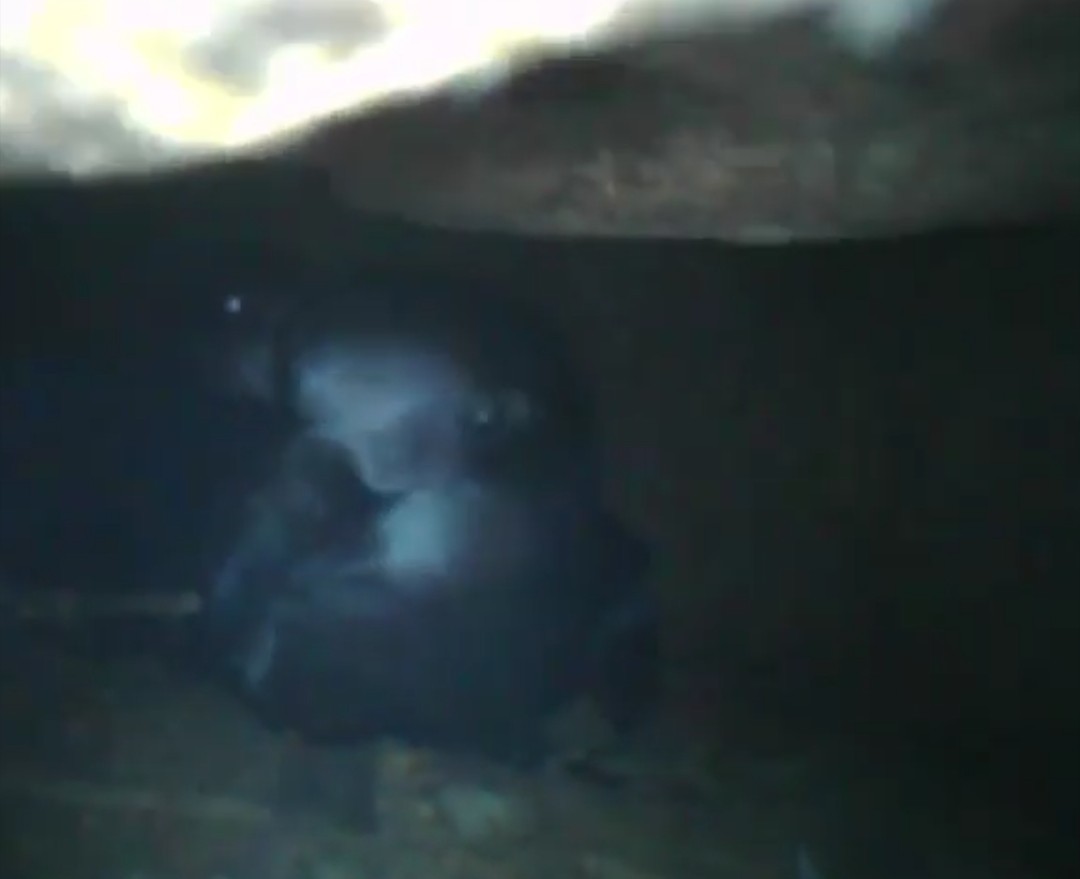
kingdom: Animalia
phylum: Chordata
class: Aves
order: Procellariiformes
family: Procellariidae
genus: Pterodroma
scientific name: Pterodroma macroptera
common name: Great-winged petrel
